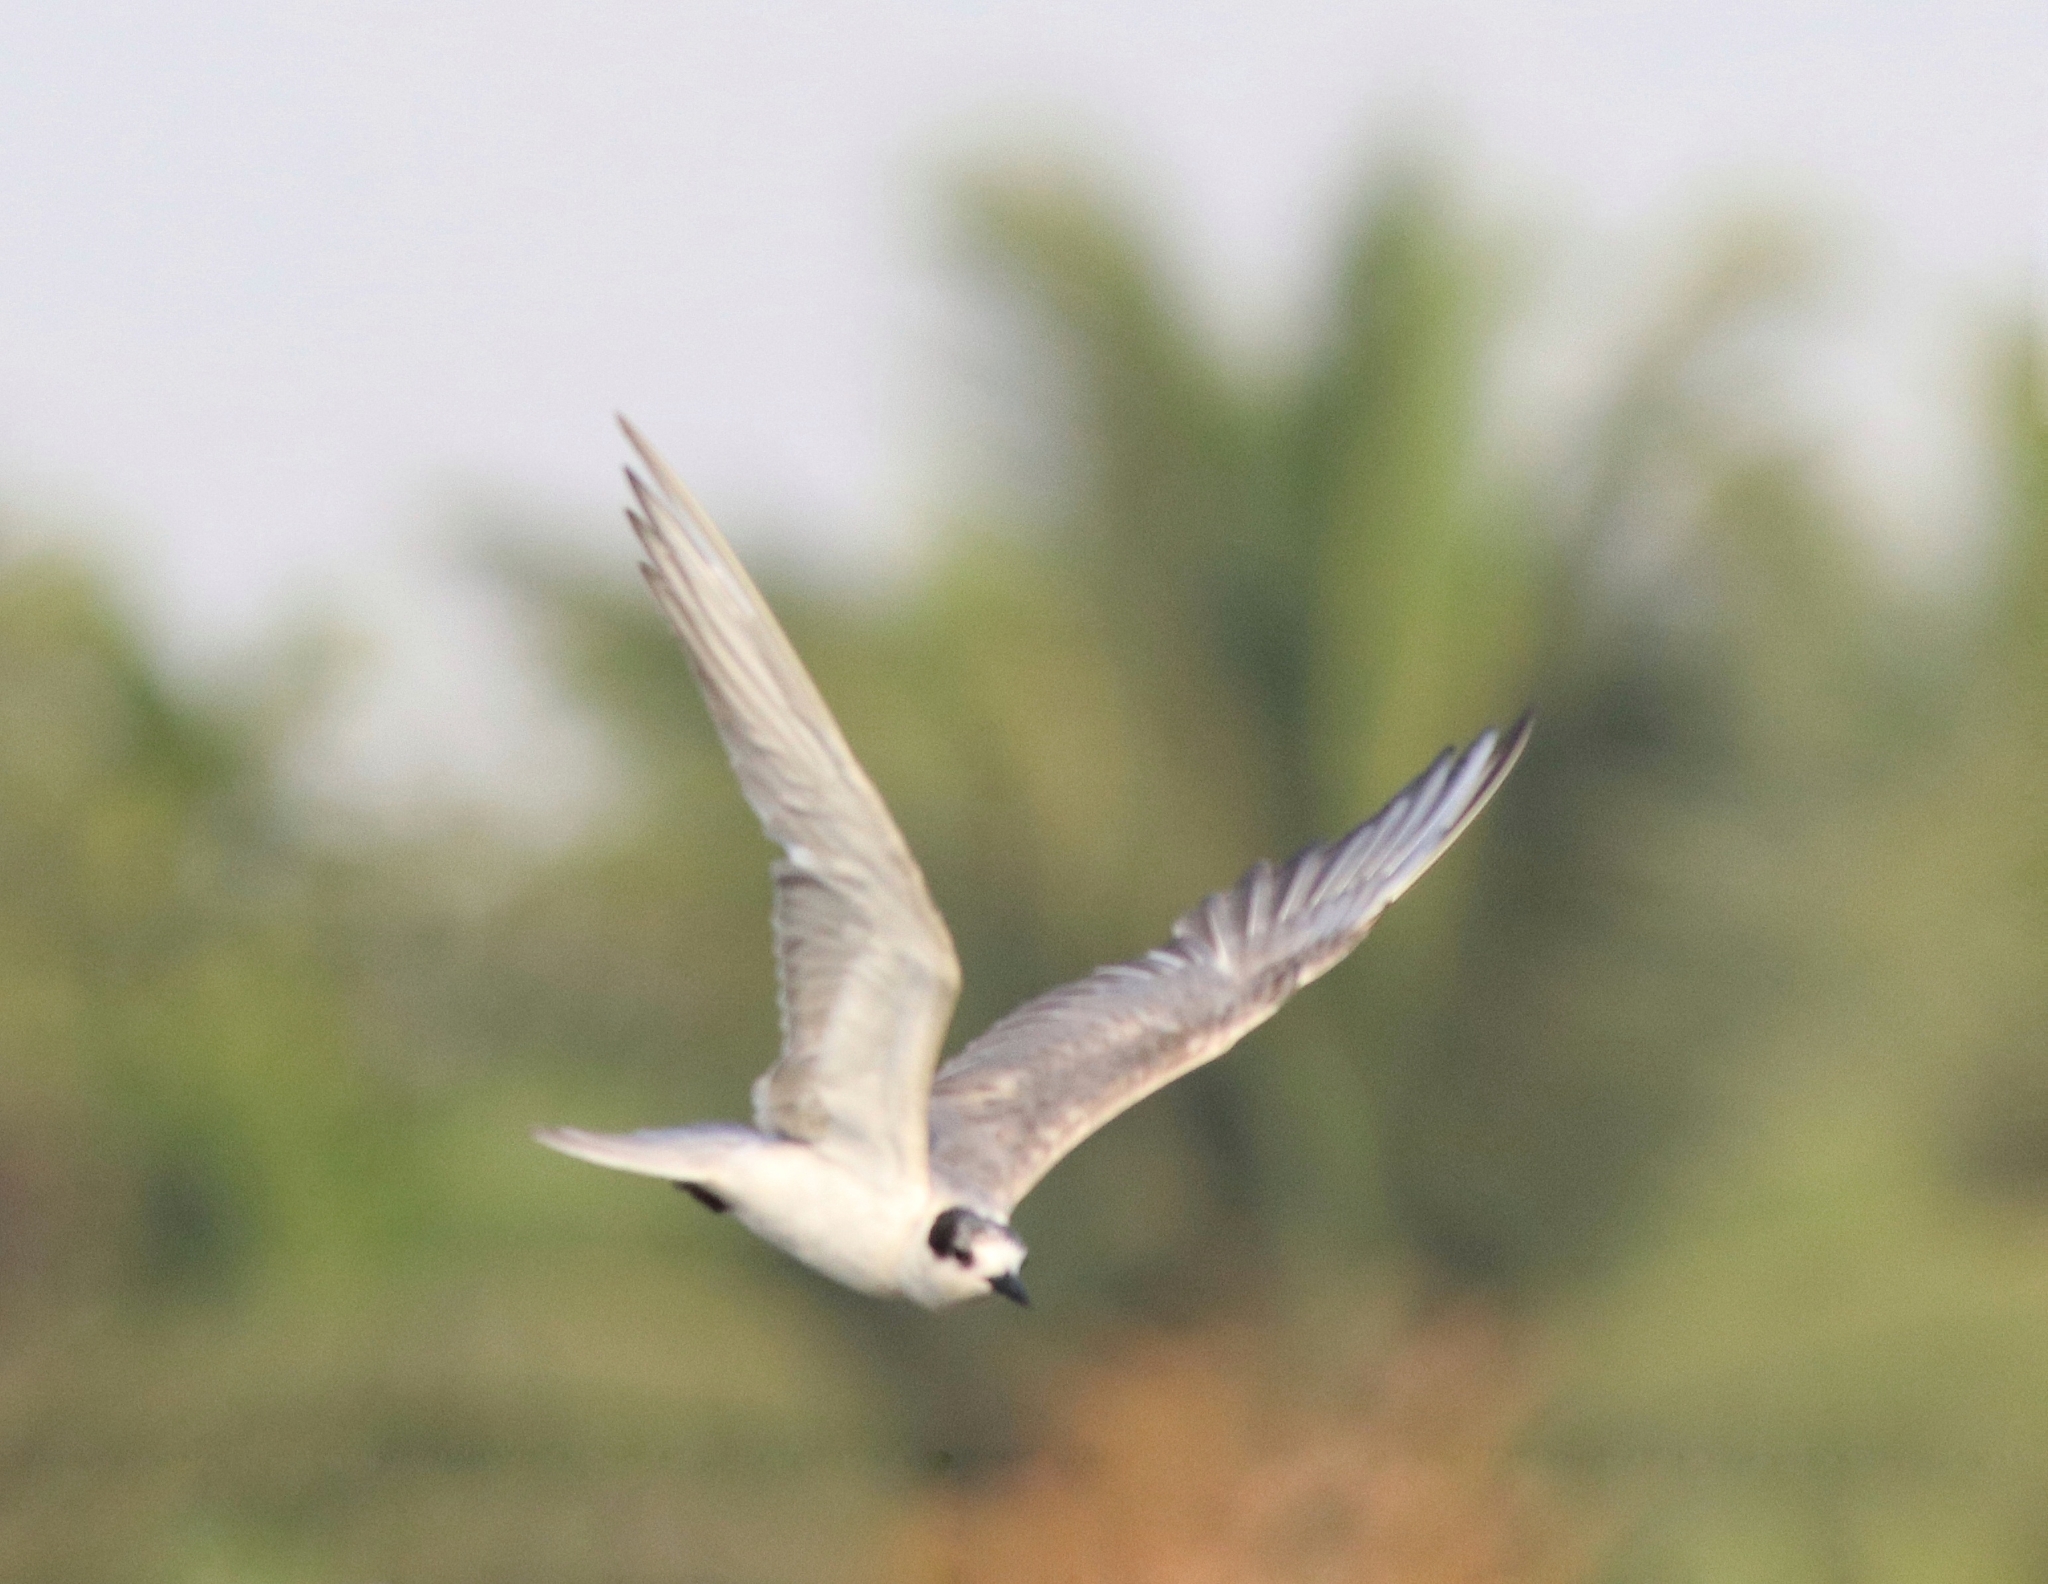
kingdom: Animalia
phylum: Chordata
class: Aves
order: Charadriiformes
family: Laridae
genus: Chlidonias
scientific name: Chlidonias hybrida
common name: Whiskered tern
